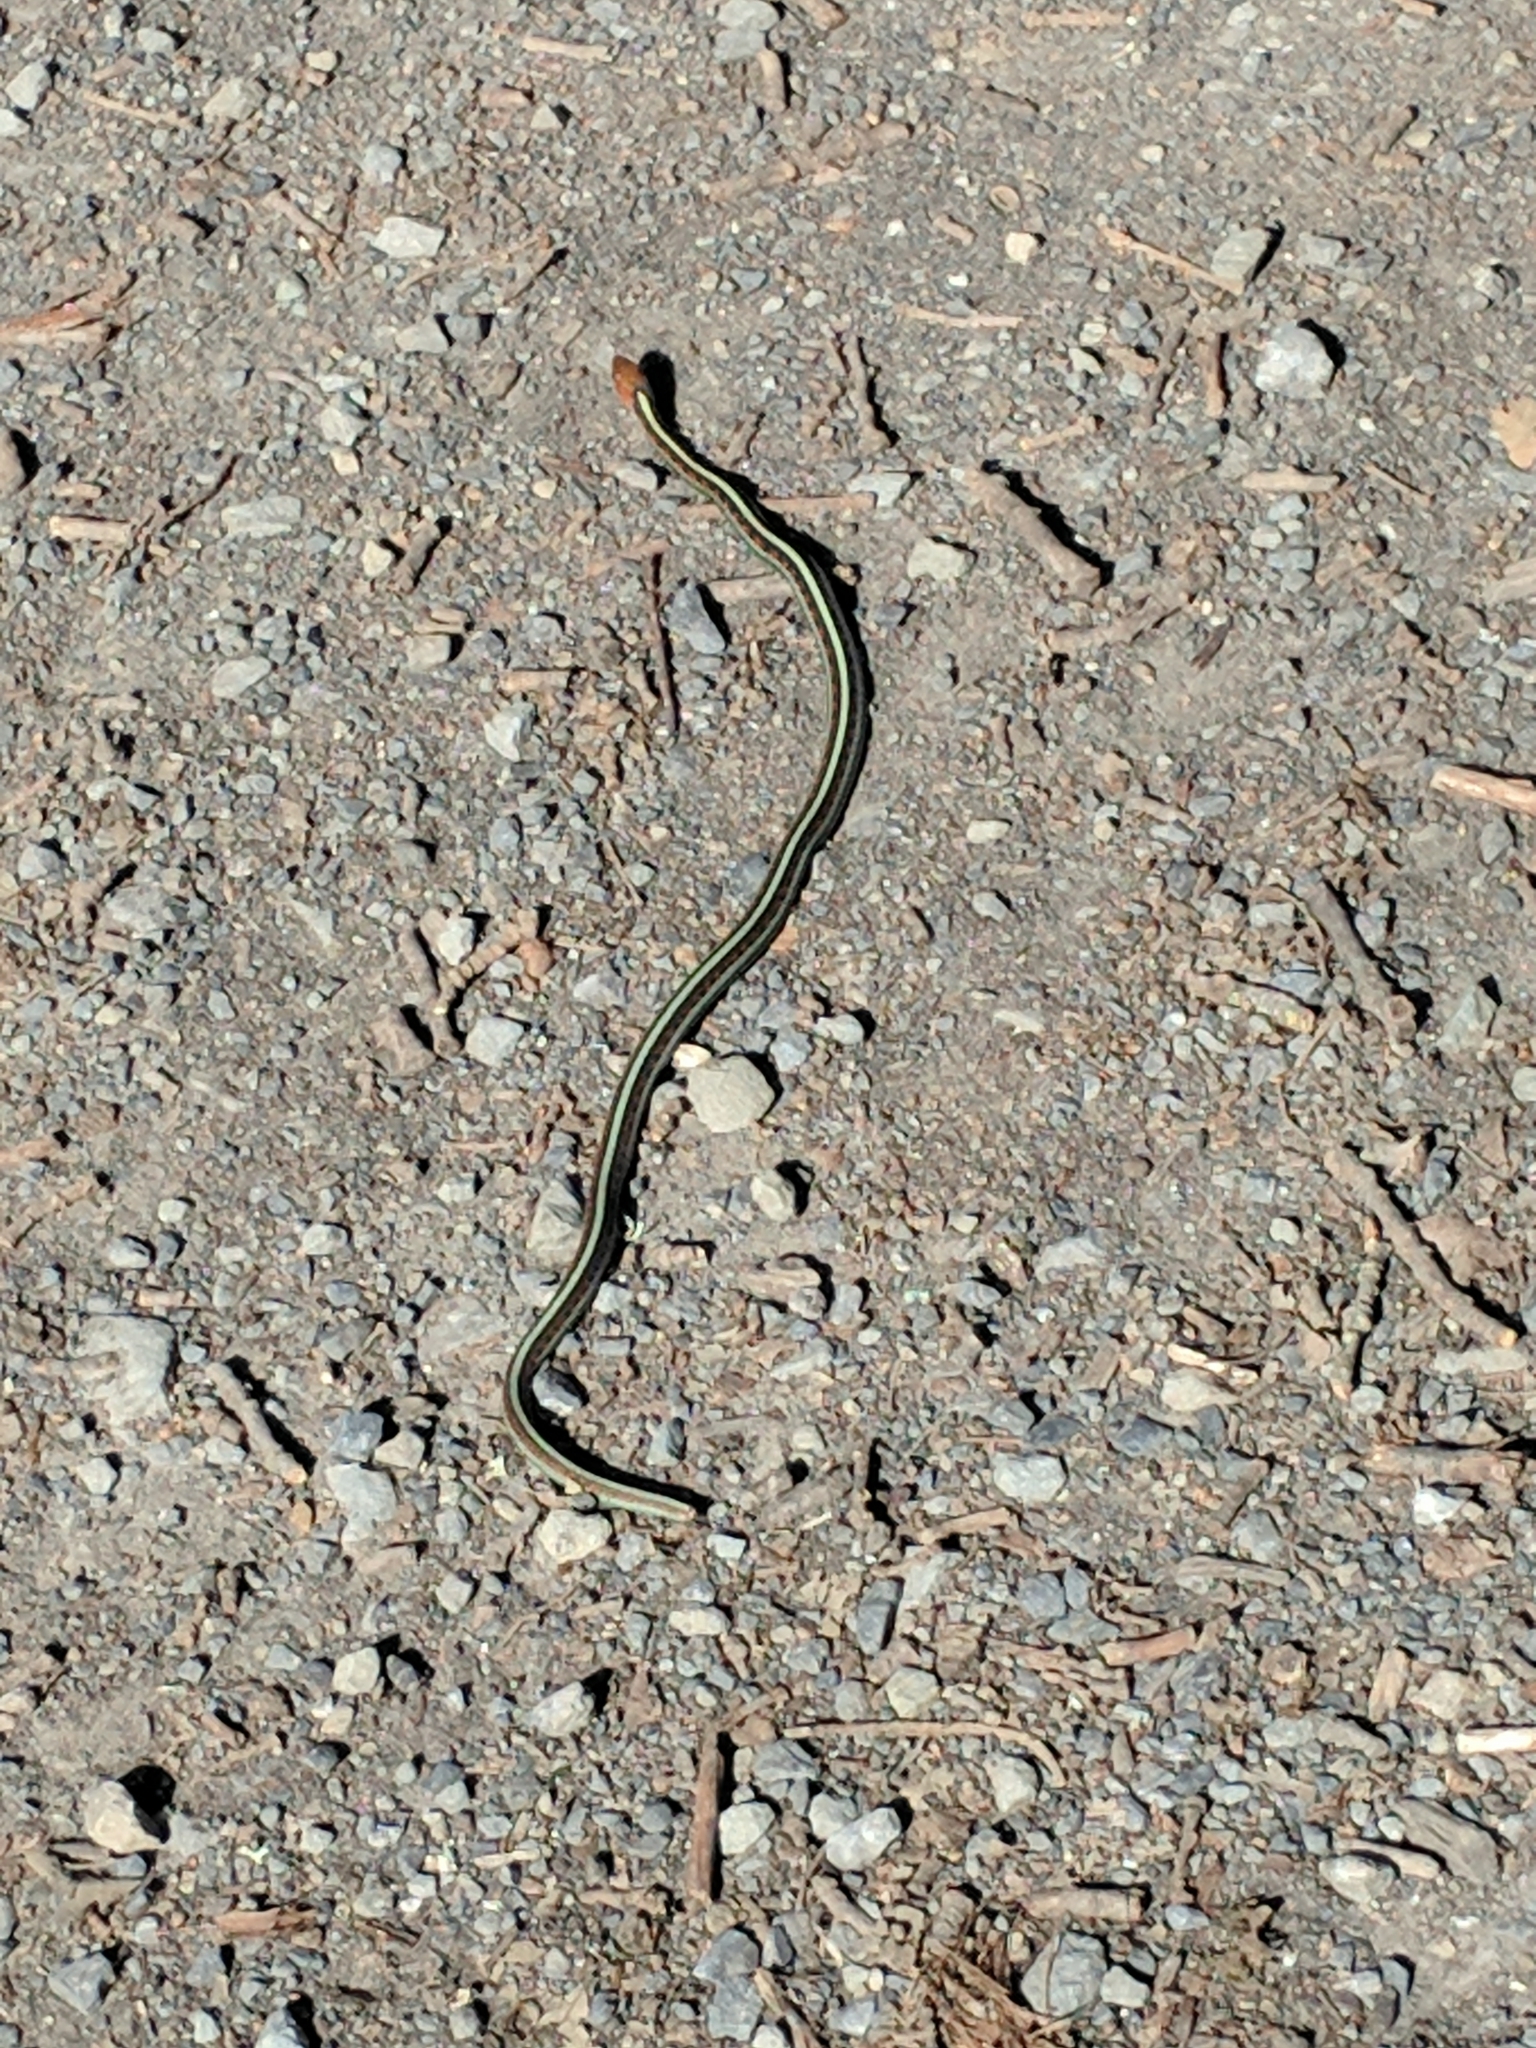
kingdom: Animalia
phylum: Chordata
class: Squamata
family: Colubridae
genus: Thamnophis
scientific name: Thamnophis sirtalis
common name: Common garter snake
